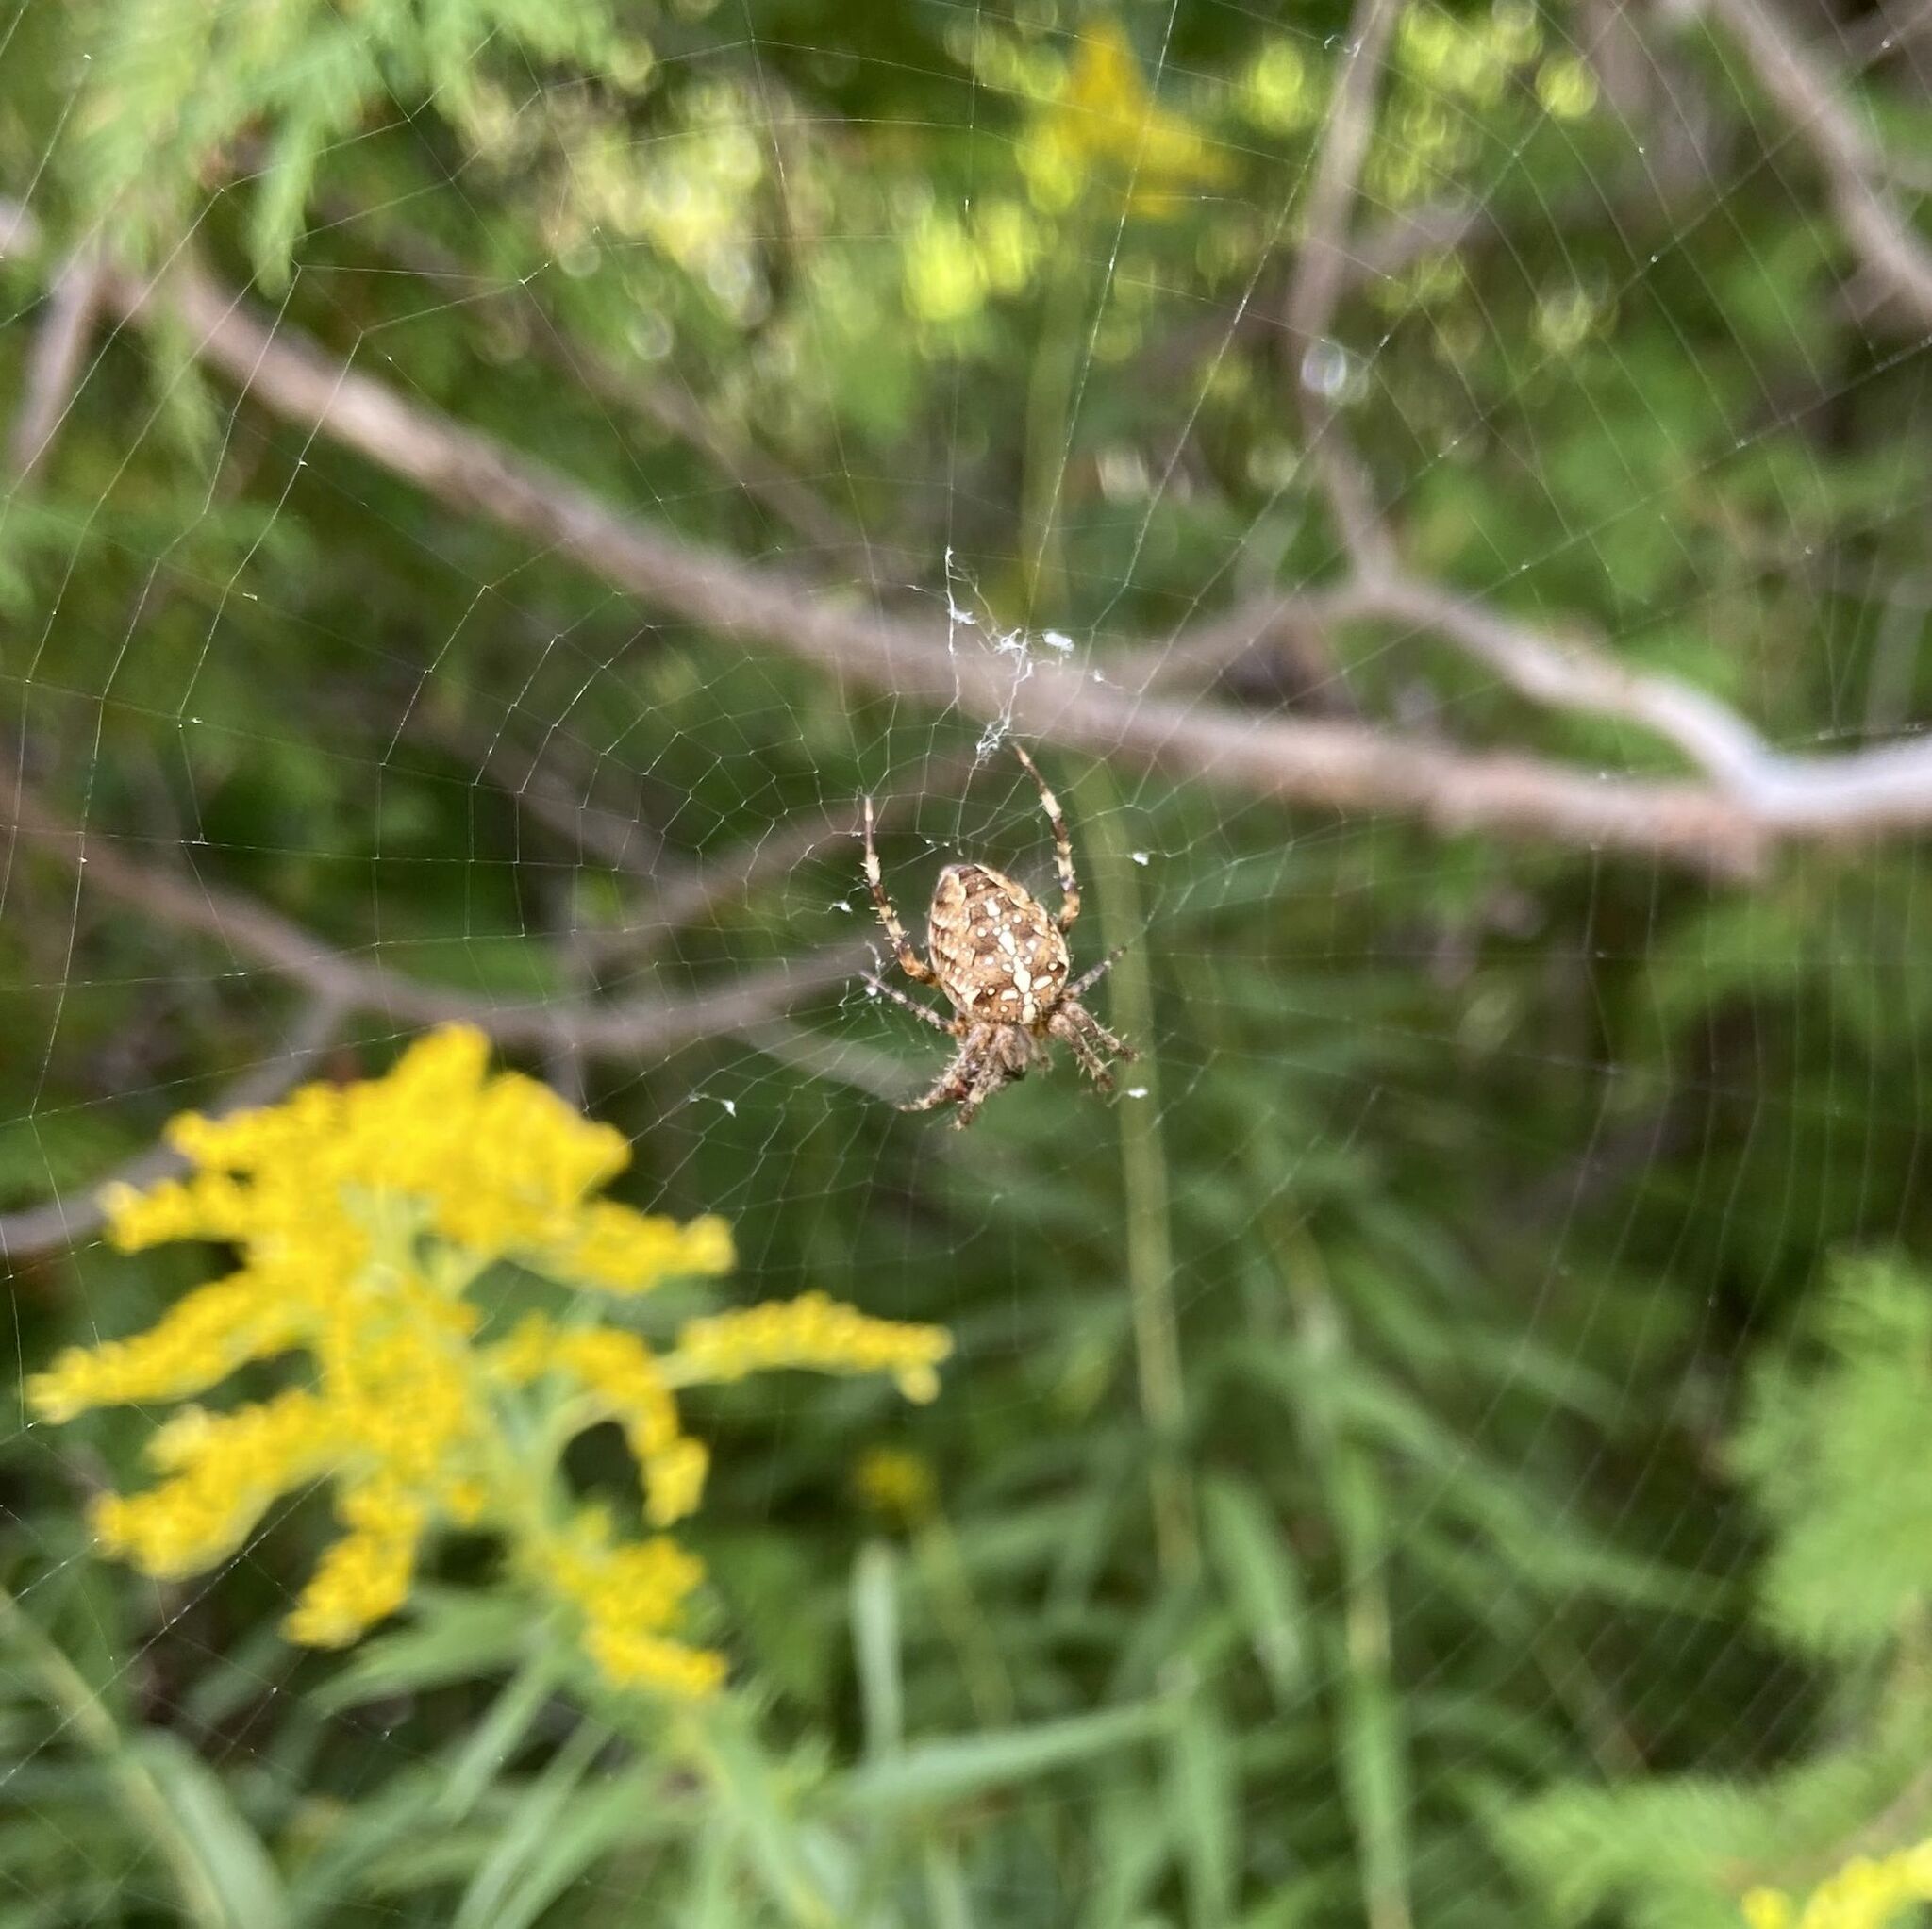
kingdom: Animalia
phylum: Arthropoda
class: Arachnida
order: Araneae
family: Araneidae
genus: Araneus
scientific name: Araneus diadematus
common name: Cross orbweaver
